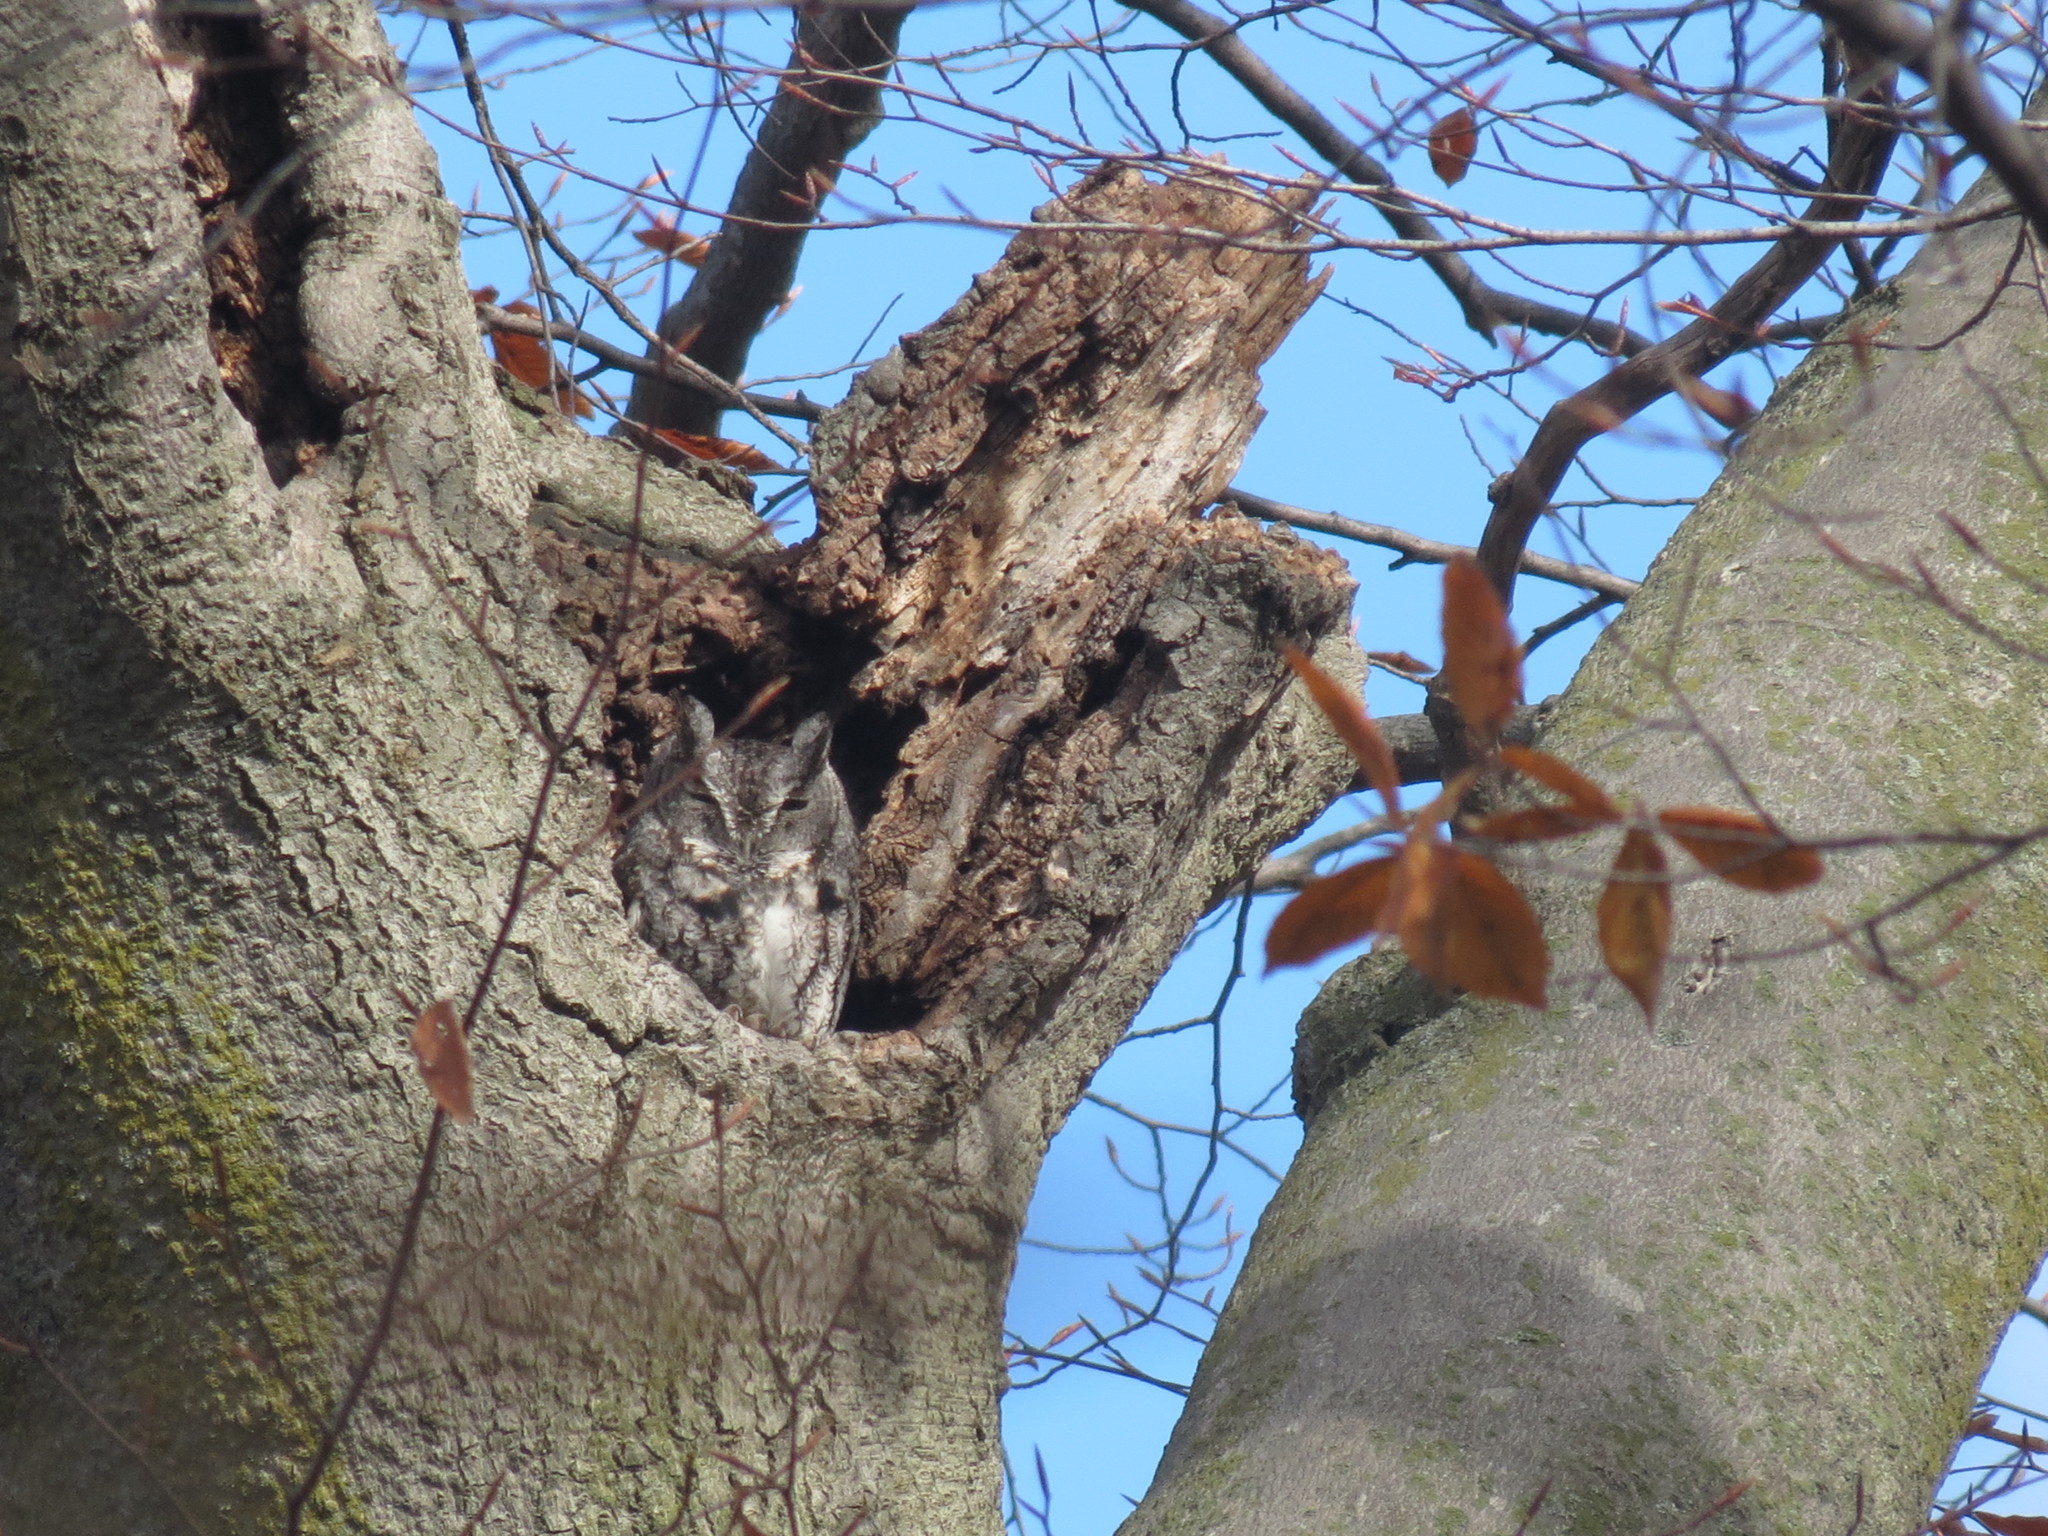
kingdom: Animalia
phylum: Chordata
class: Aves
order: Strigiformes
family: Strigidae
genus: Megascops
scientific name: Megascops asio
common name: Eastern screech-owl
